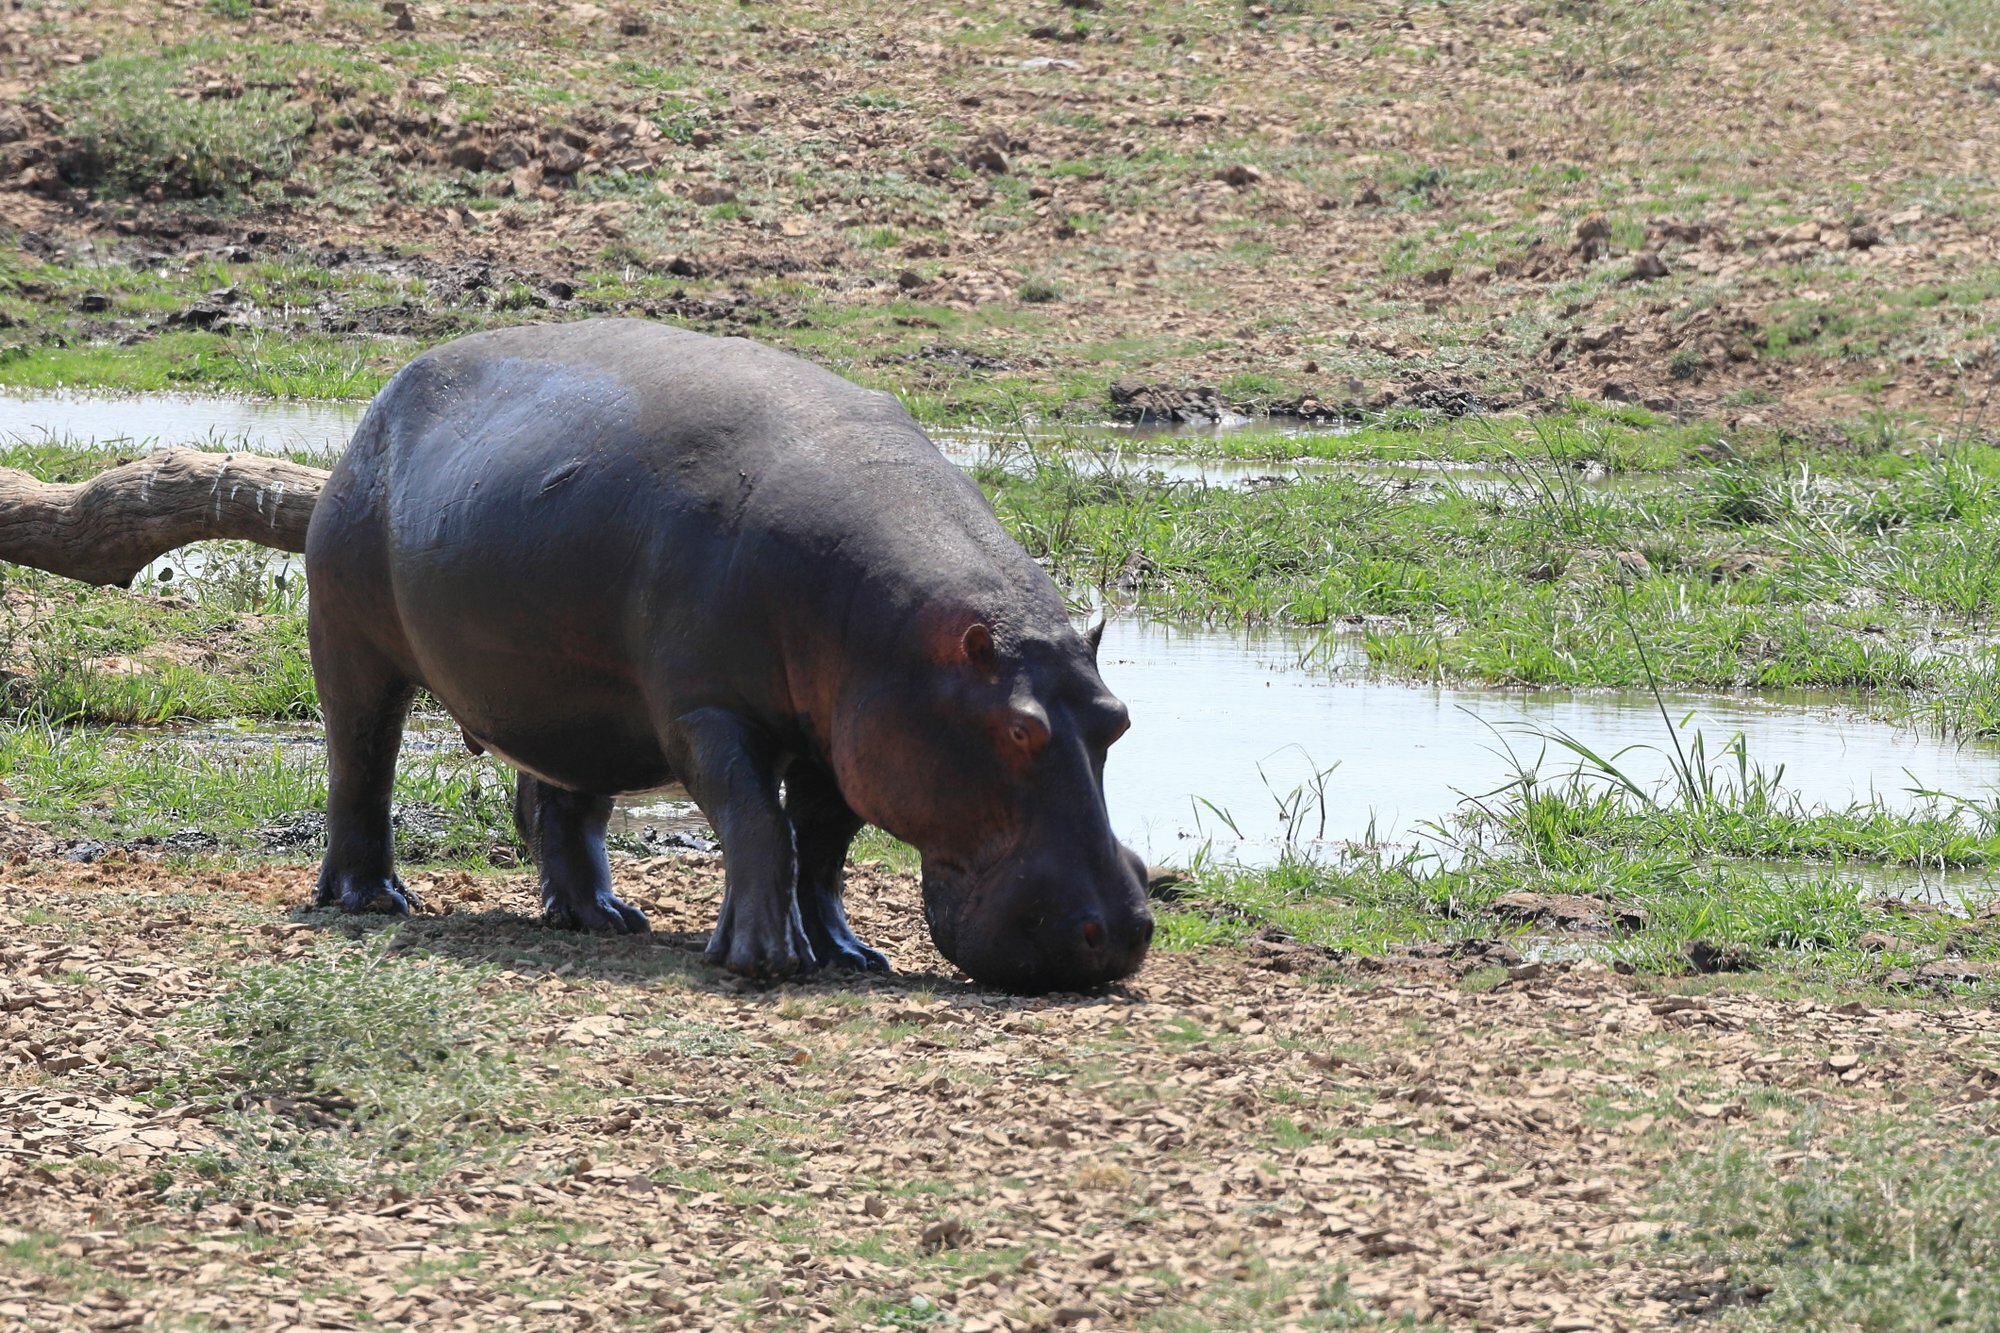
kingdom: Animalia
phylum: Chordata
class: Mammalia
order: Artiodactyla
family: Hippopotamidae
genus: Hippopotamus
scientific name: Hippopotamus amphibius
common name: Common hippopotamus
